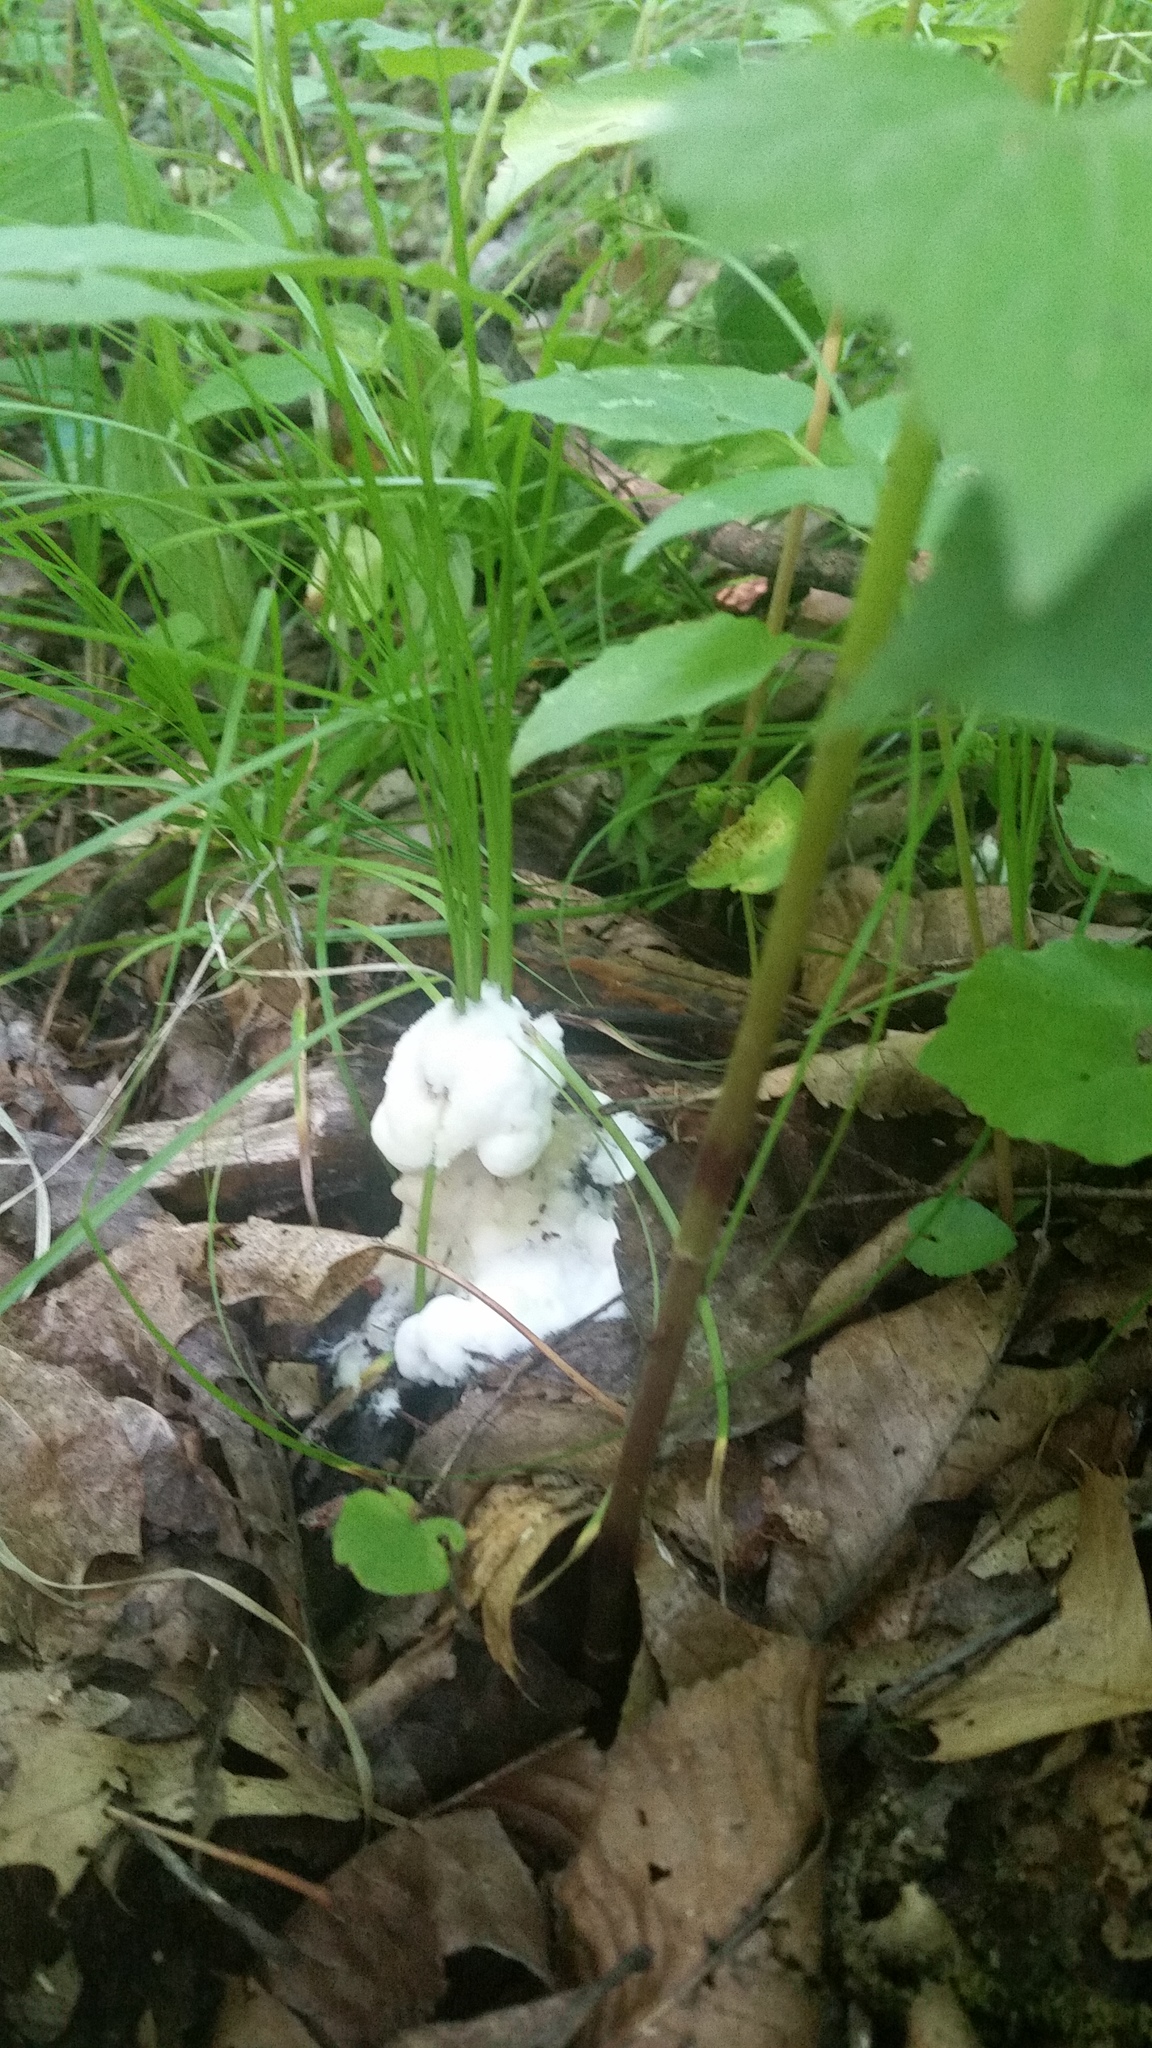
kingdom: Fungi
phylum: Basidiomycota
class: Agaricomycetes
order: Sebacinales
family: Sebacinaceae
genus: Helvellosebacina
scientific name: Helvellosebacina concrescens
